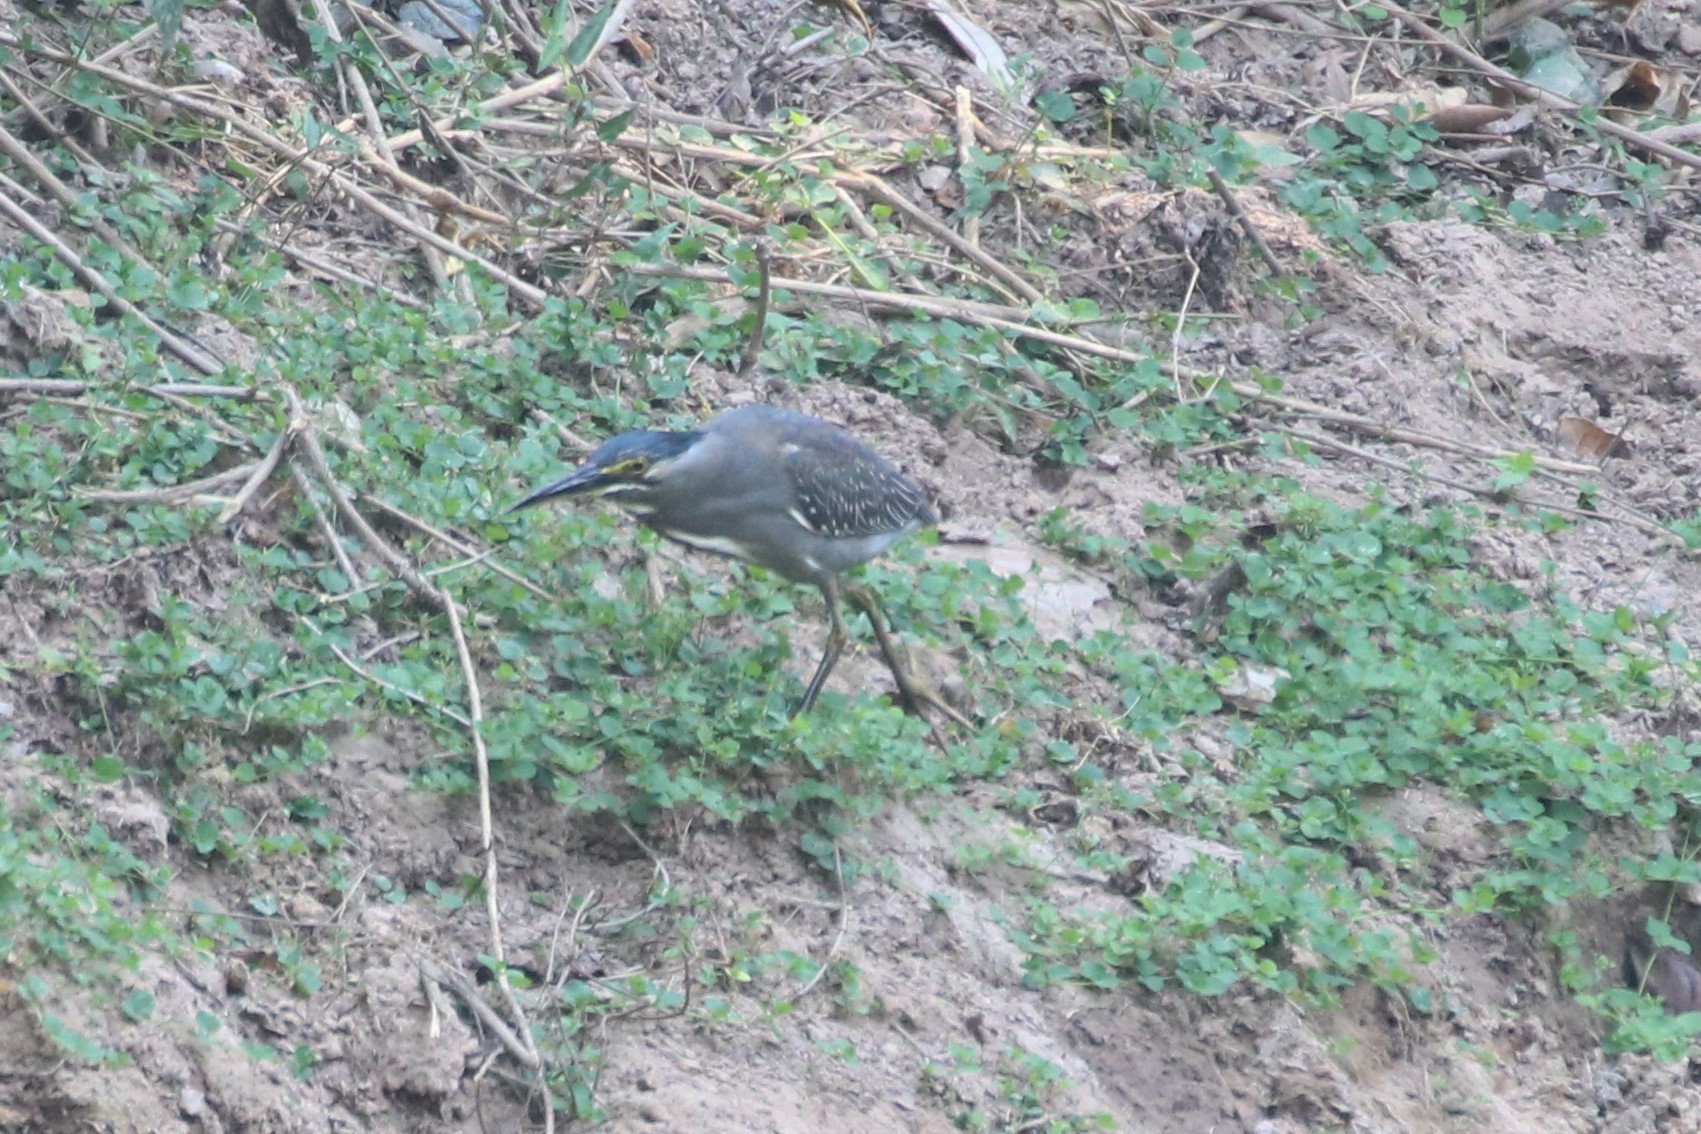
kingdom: Animalia
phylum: Chordata
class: Aves
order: Pelecaniformes
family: Ardeidae
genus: Butorides
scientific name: Butorides striata
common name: Striated heron
